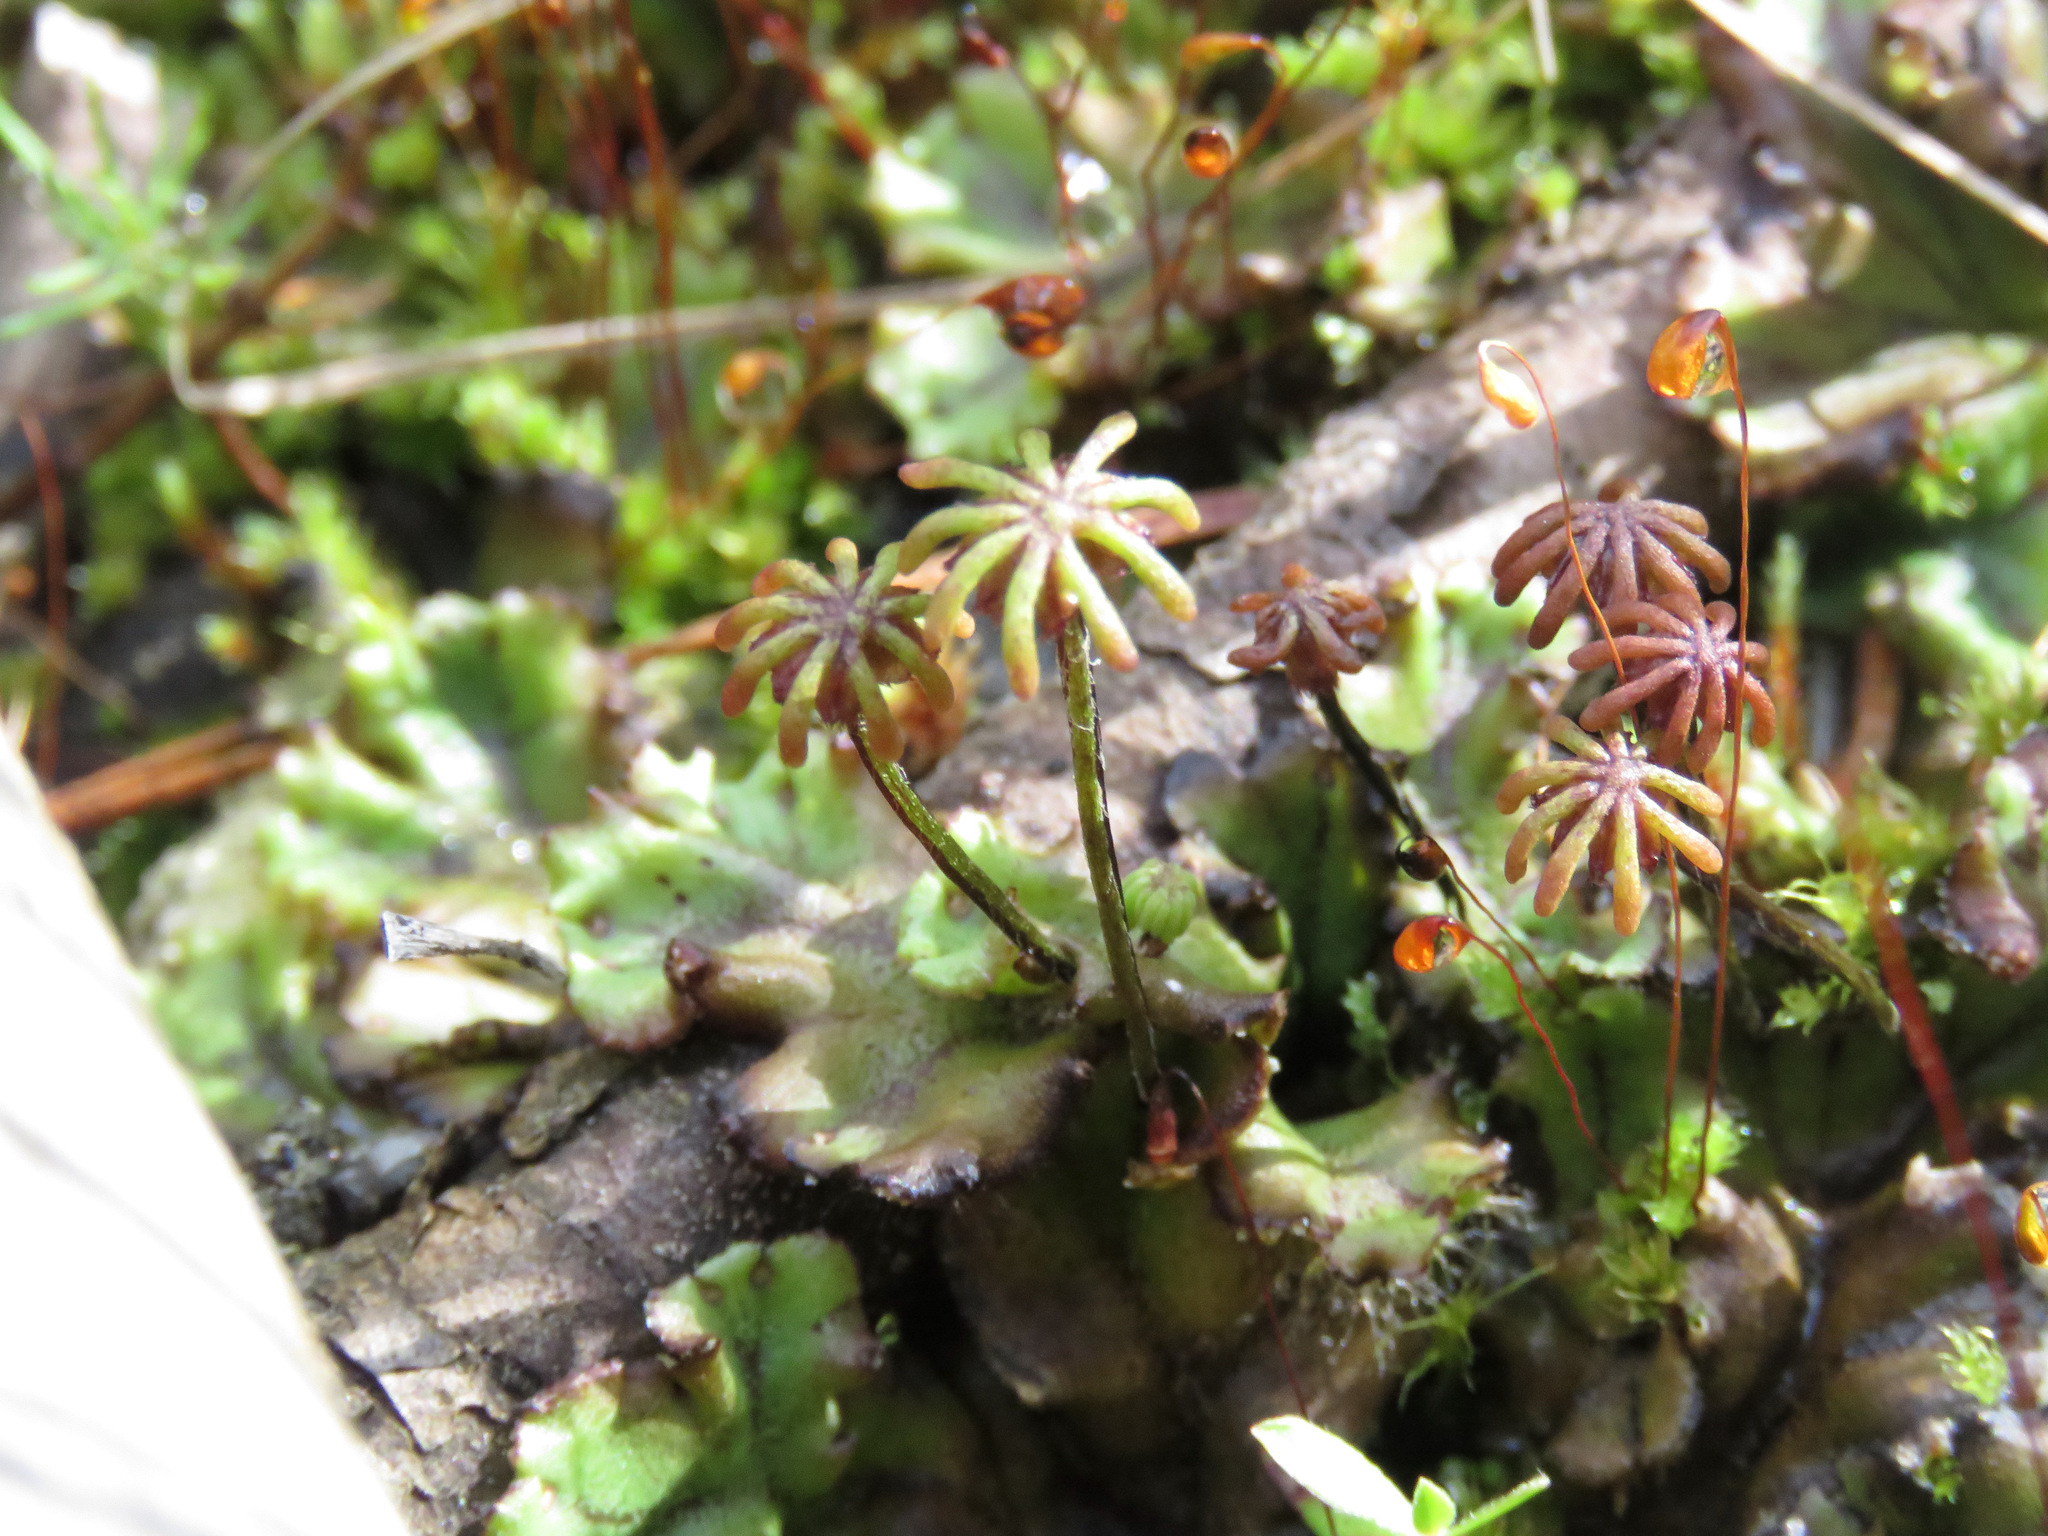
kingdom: Plantae
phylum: Marchantiophyta
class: Marchantiopsida
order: Marchantiales
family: Marchantiaceae
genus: Marchantia
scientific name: Marchantia polymorpha
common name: Common liverwort
